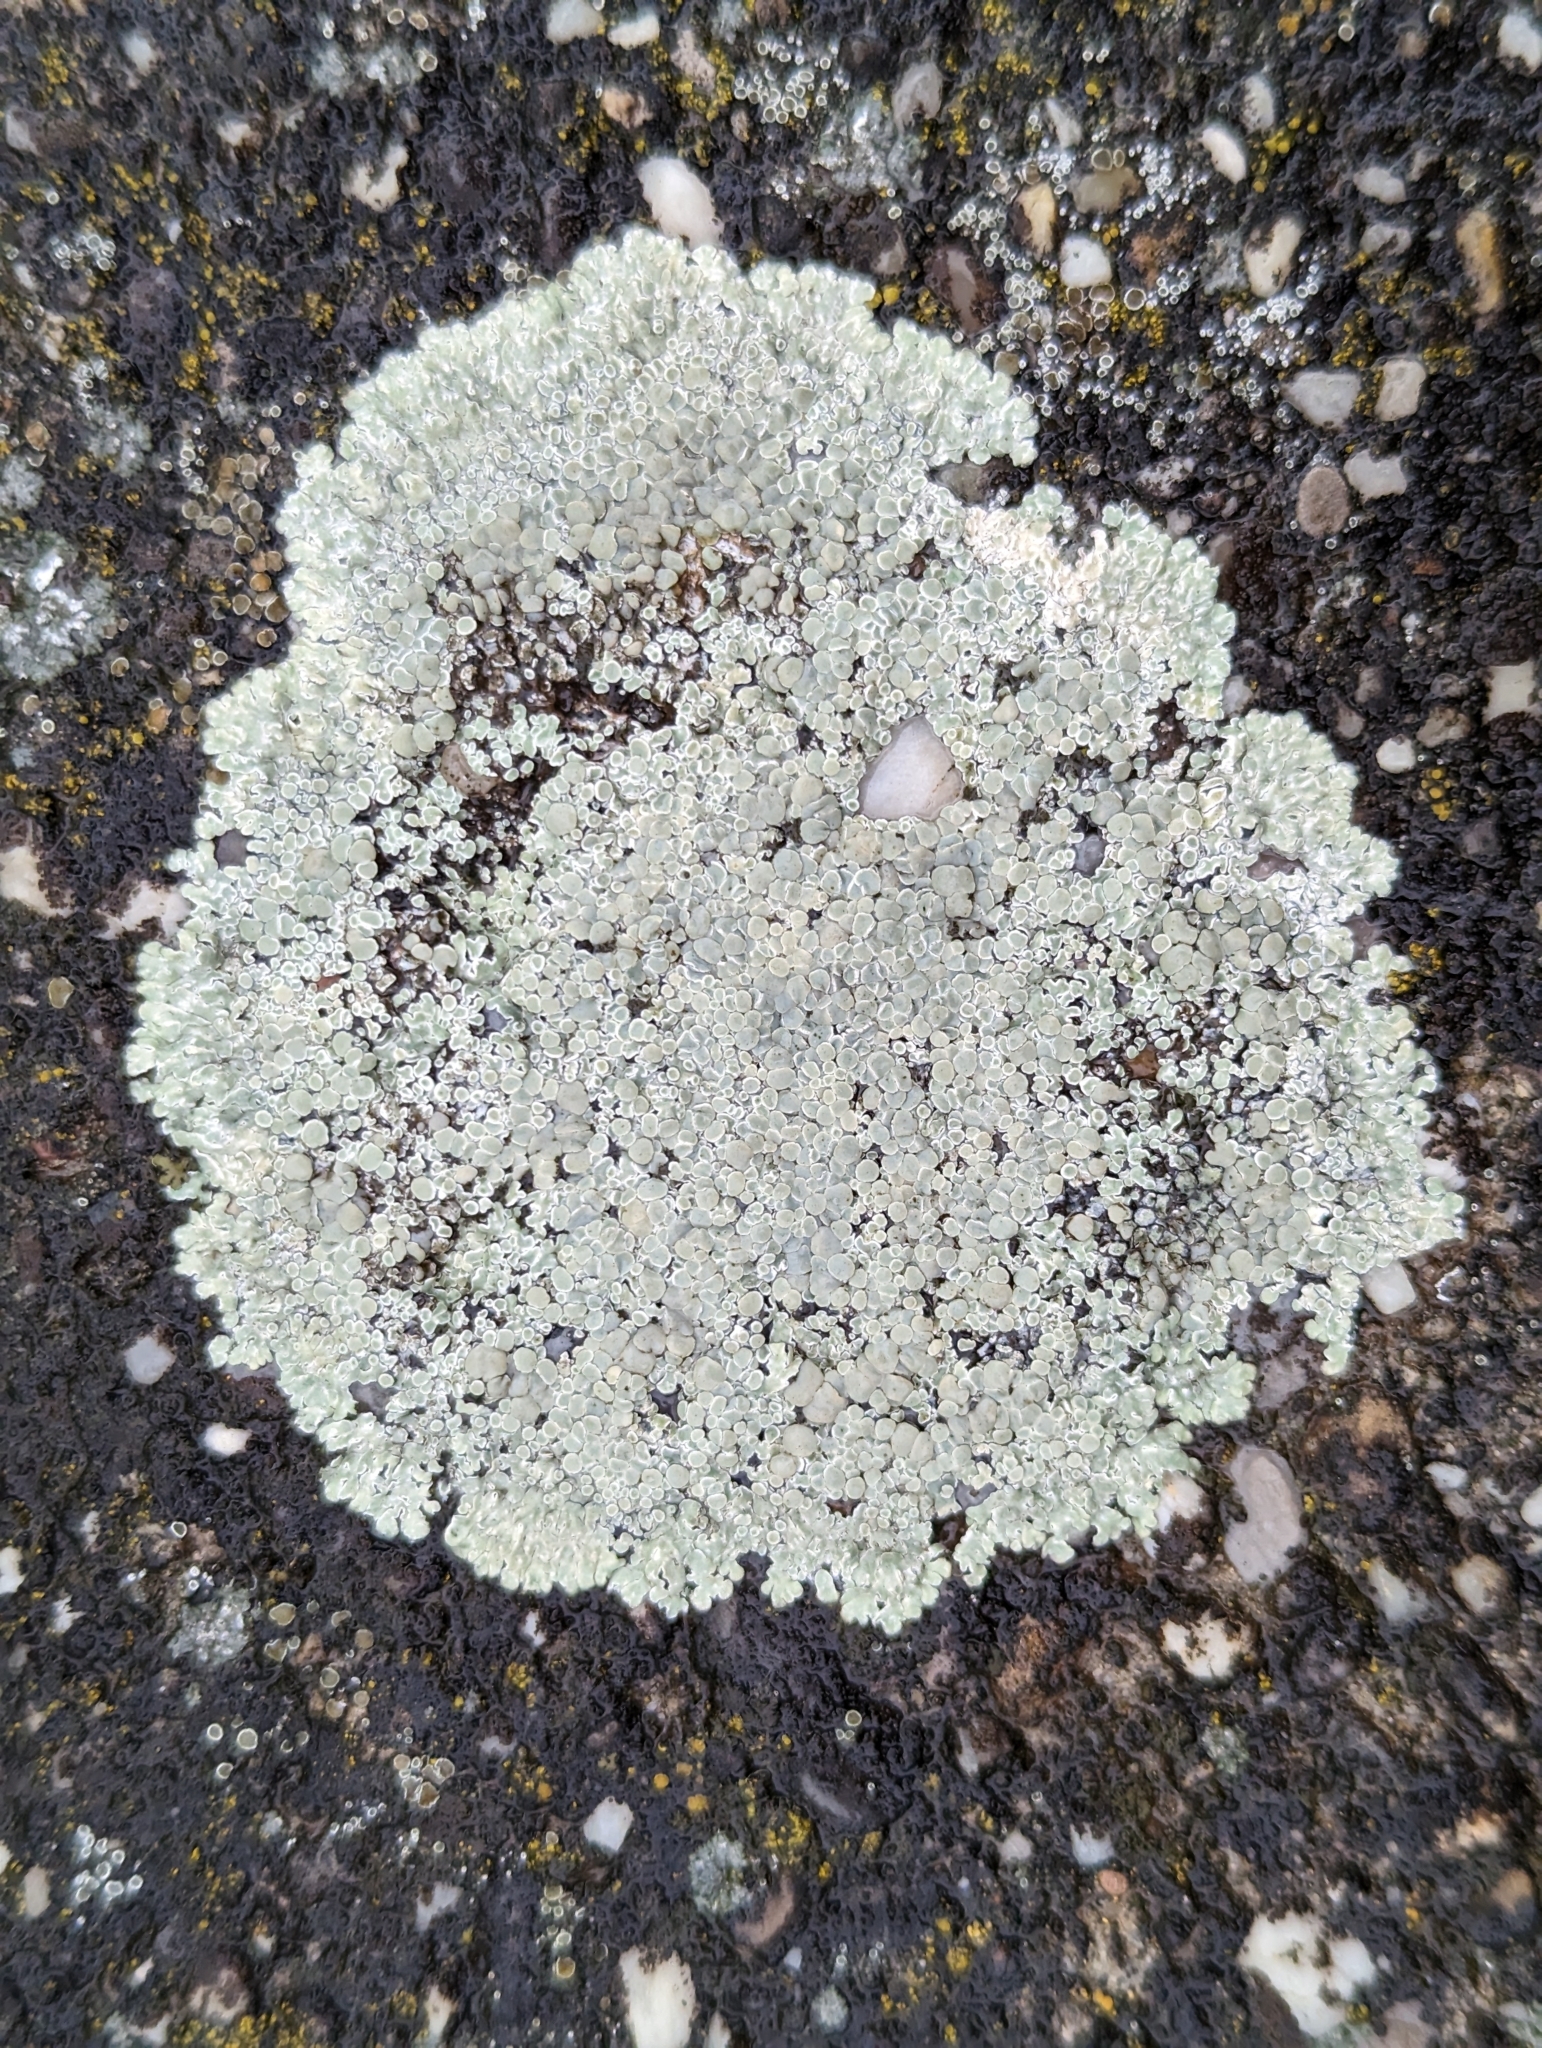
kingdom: Fungi
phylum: Ascomycota
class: Lecanoromycetes
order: Lecanorales
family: Lecanoraceae
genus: Protoparmeliopsis
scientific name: Protoparmeliopsis muralis
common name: Stonewall rim lichen
